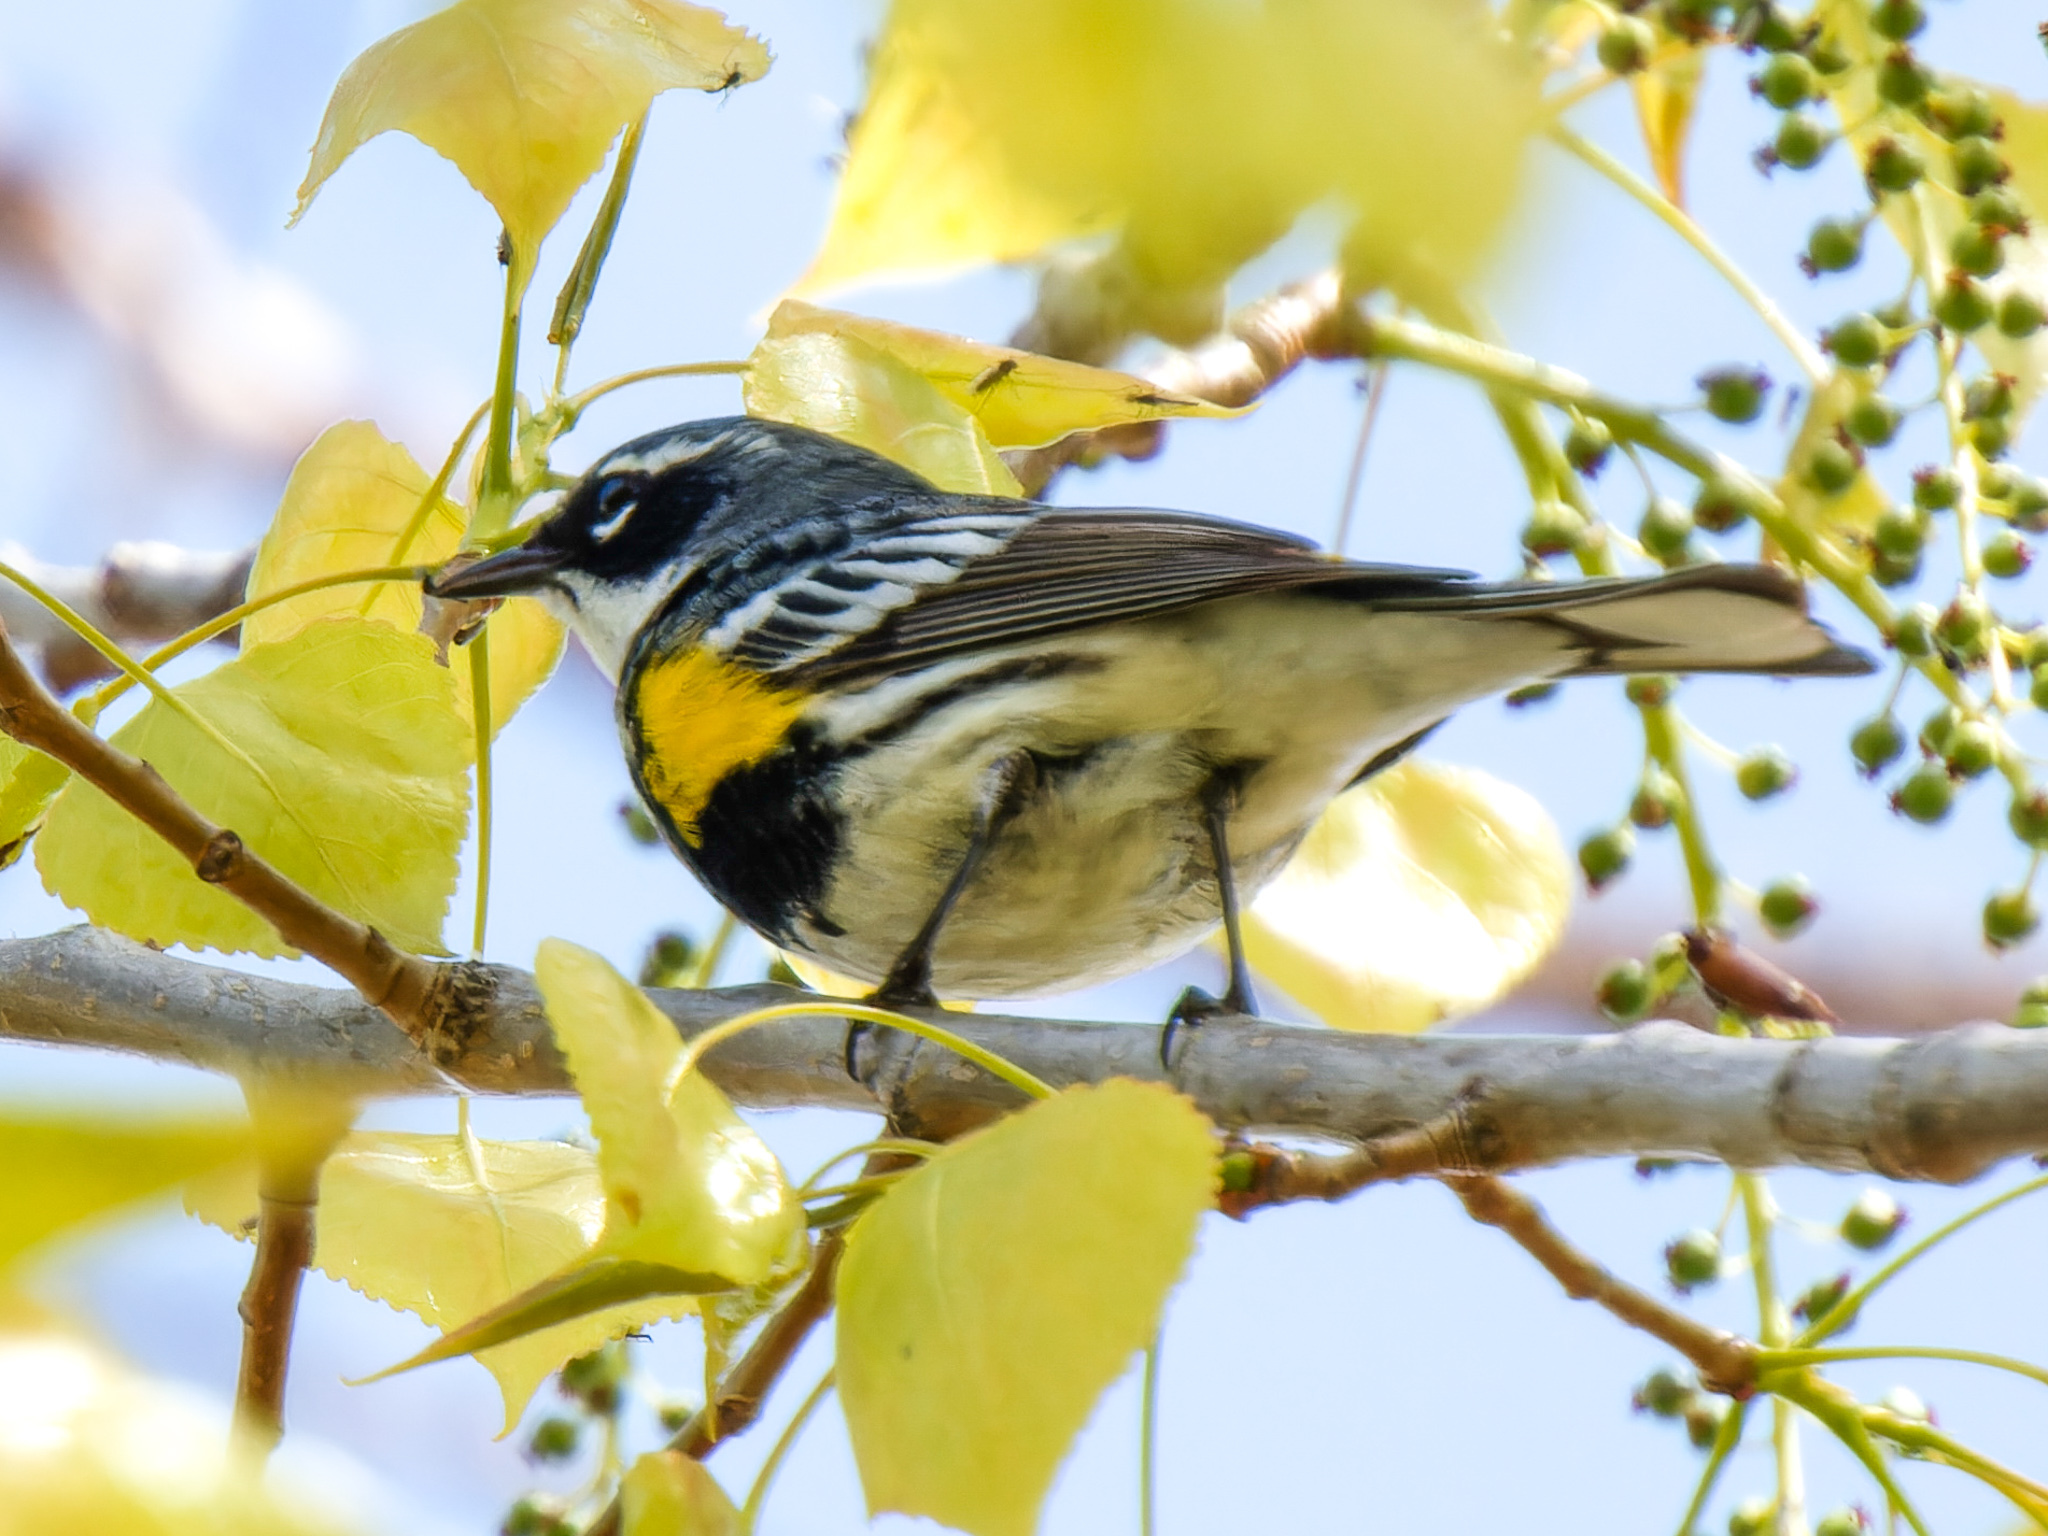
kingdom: Animalia
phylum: Chordata
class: Aves
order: Passeriformes
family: Parulidae
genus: Setophaga
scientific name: Setophaga coronata
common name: Myrtle warbler
